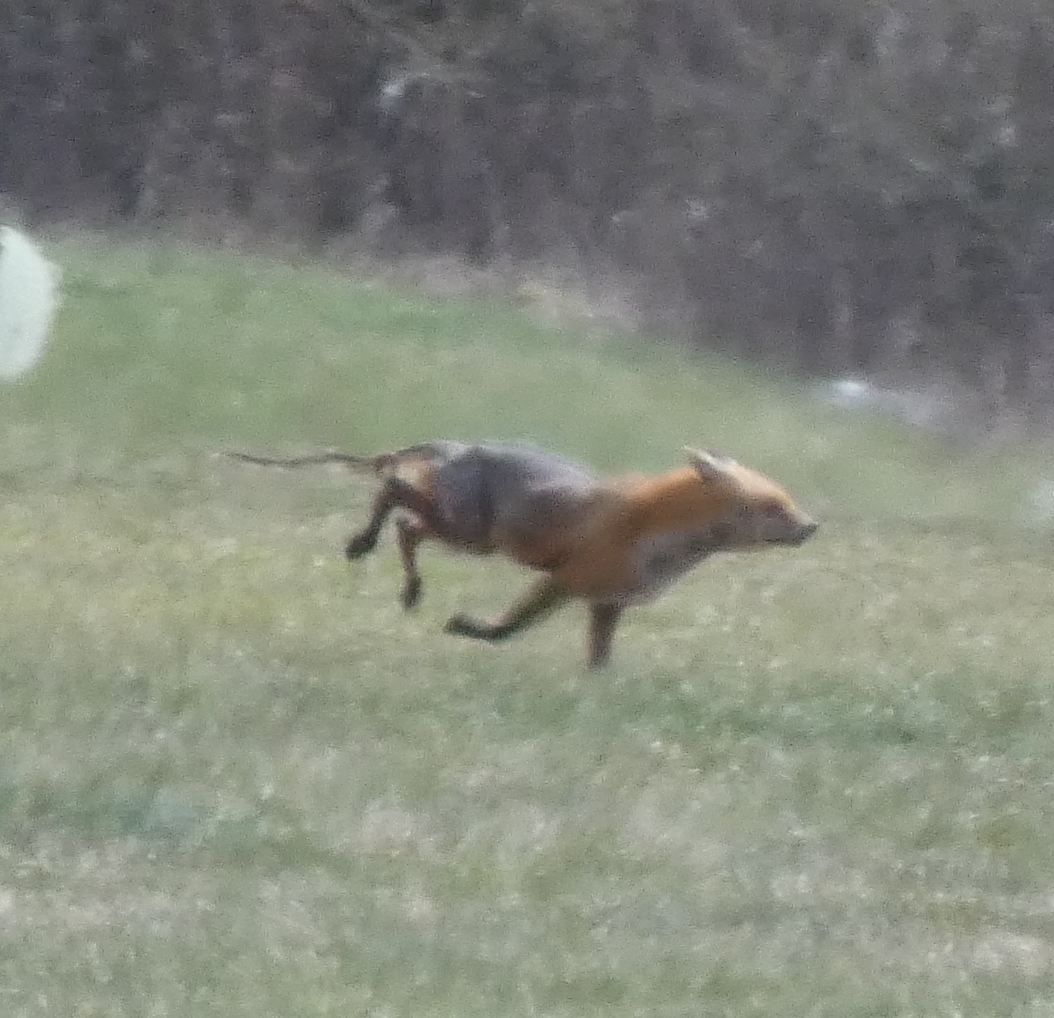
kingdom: Animalia
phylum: Chordata
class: Mammalia
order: Carnivora
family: Canidae
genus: Vulpes
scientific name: Vulpes vulpes
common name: Red fox
